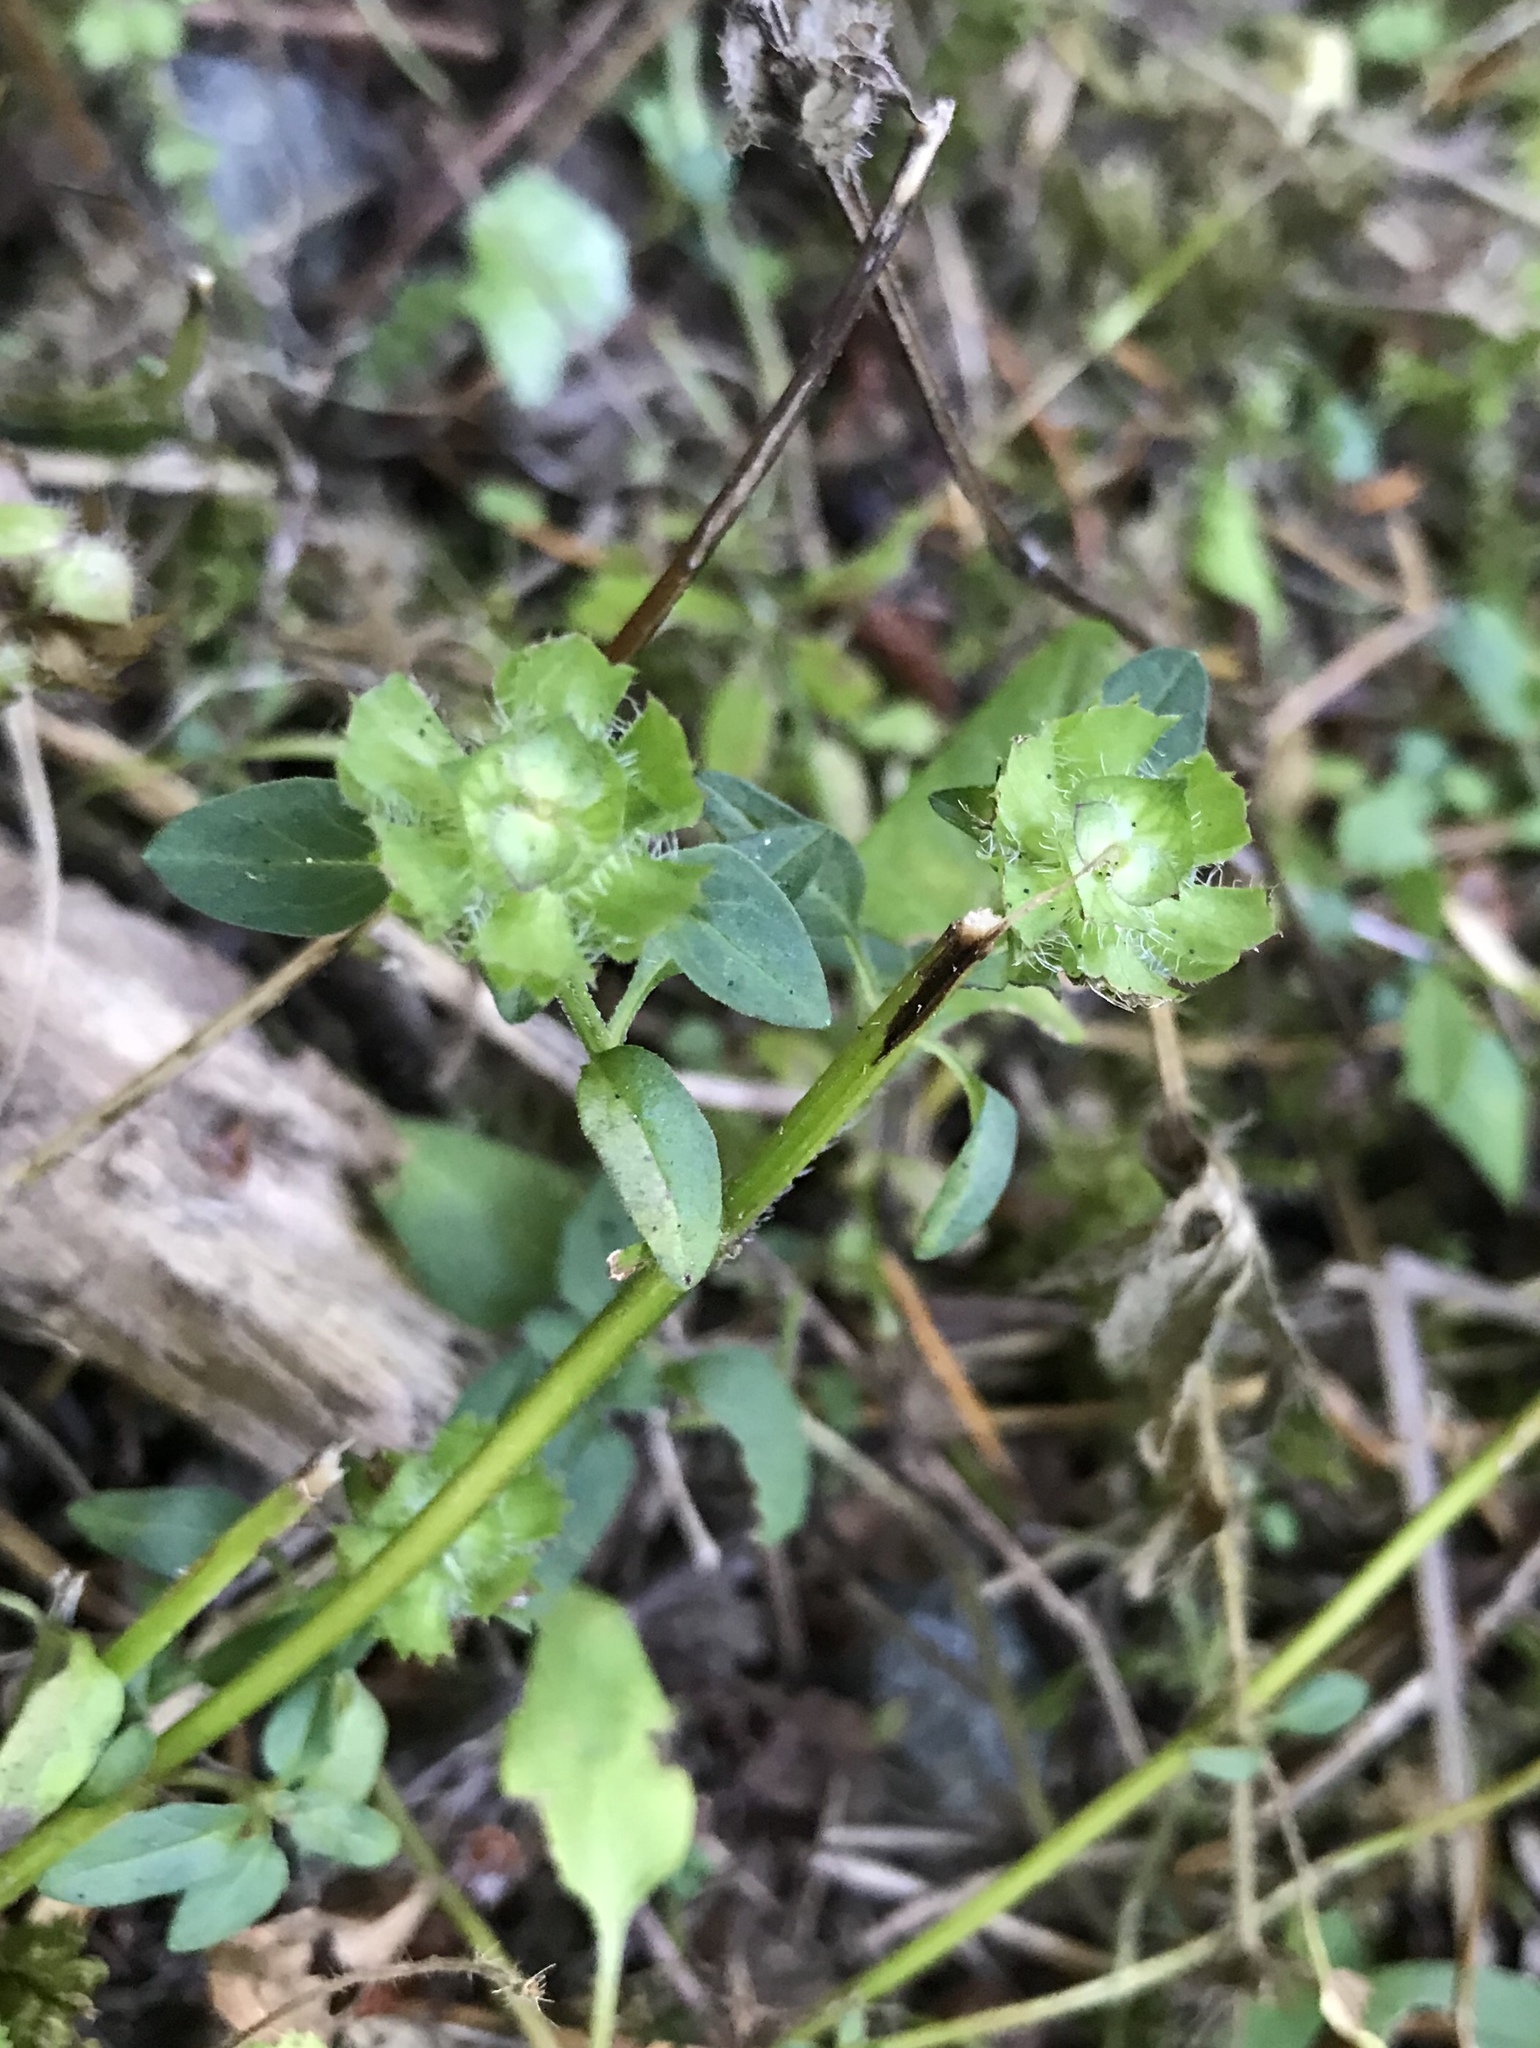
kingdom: Plantae
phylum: Tracheophyta
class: Magnoliopsida
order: Lamiales
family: Lamiaceae
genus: Prunella
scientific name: Prunella vulgaris
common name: Heal-all
